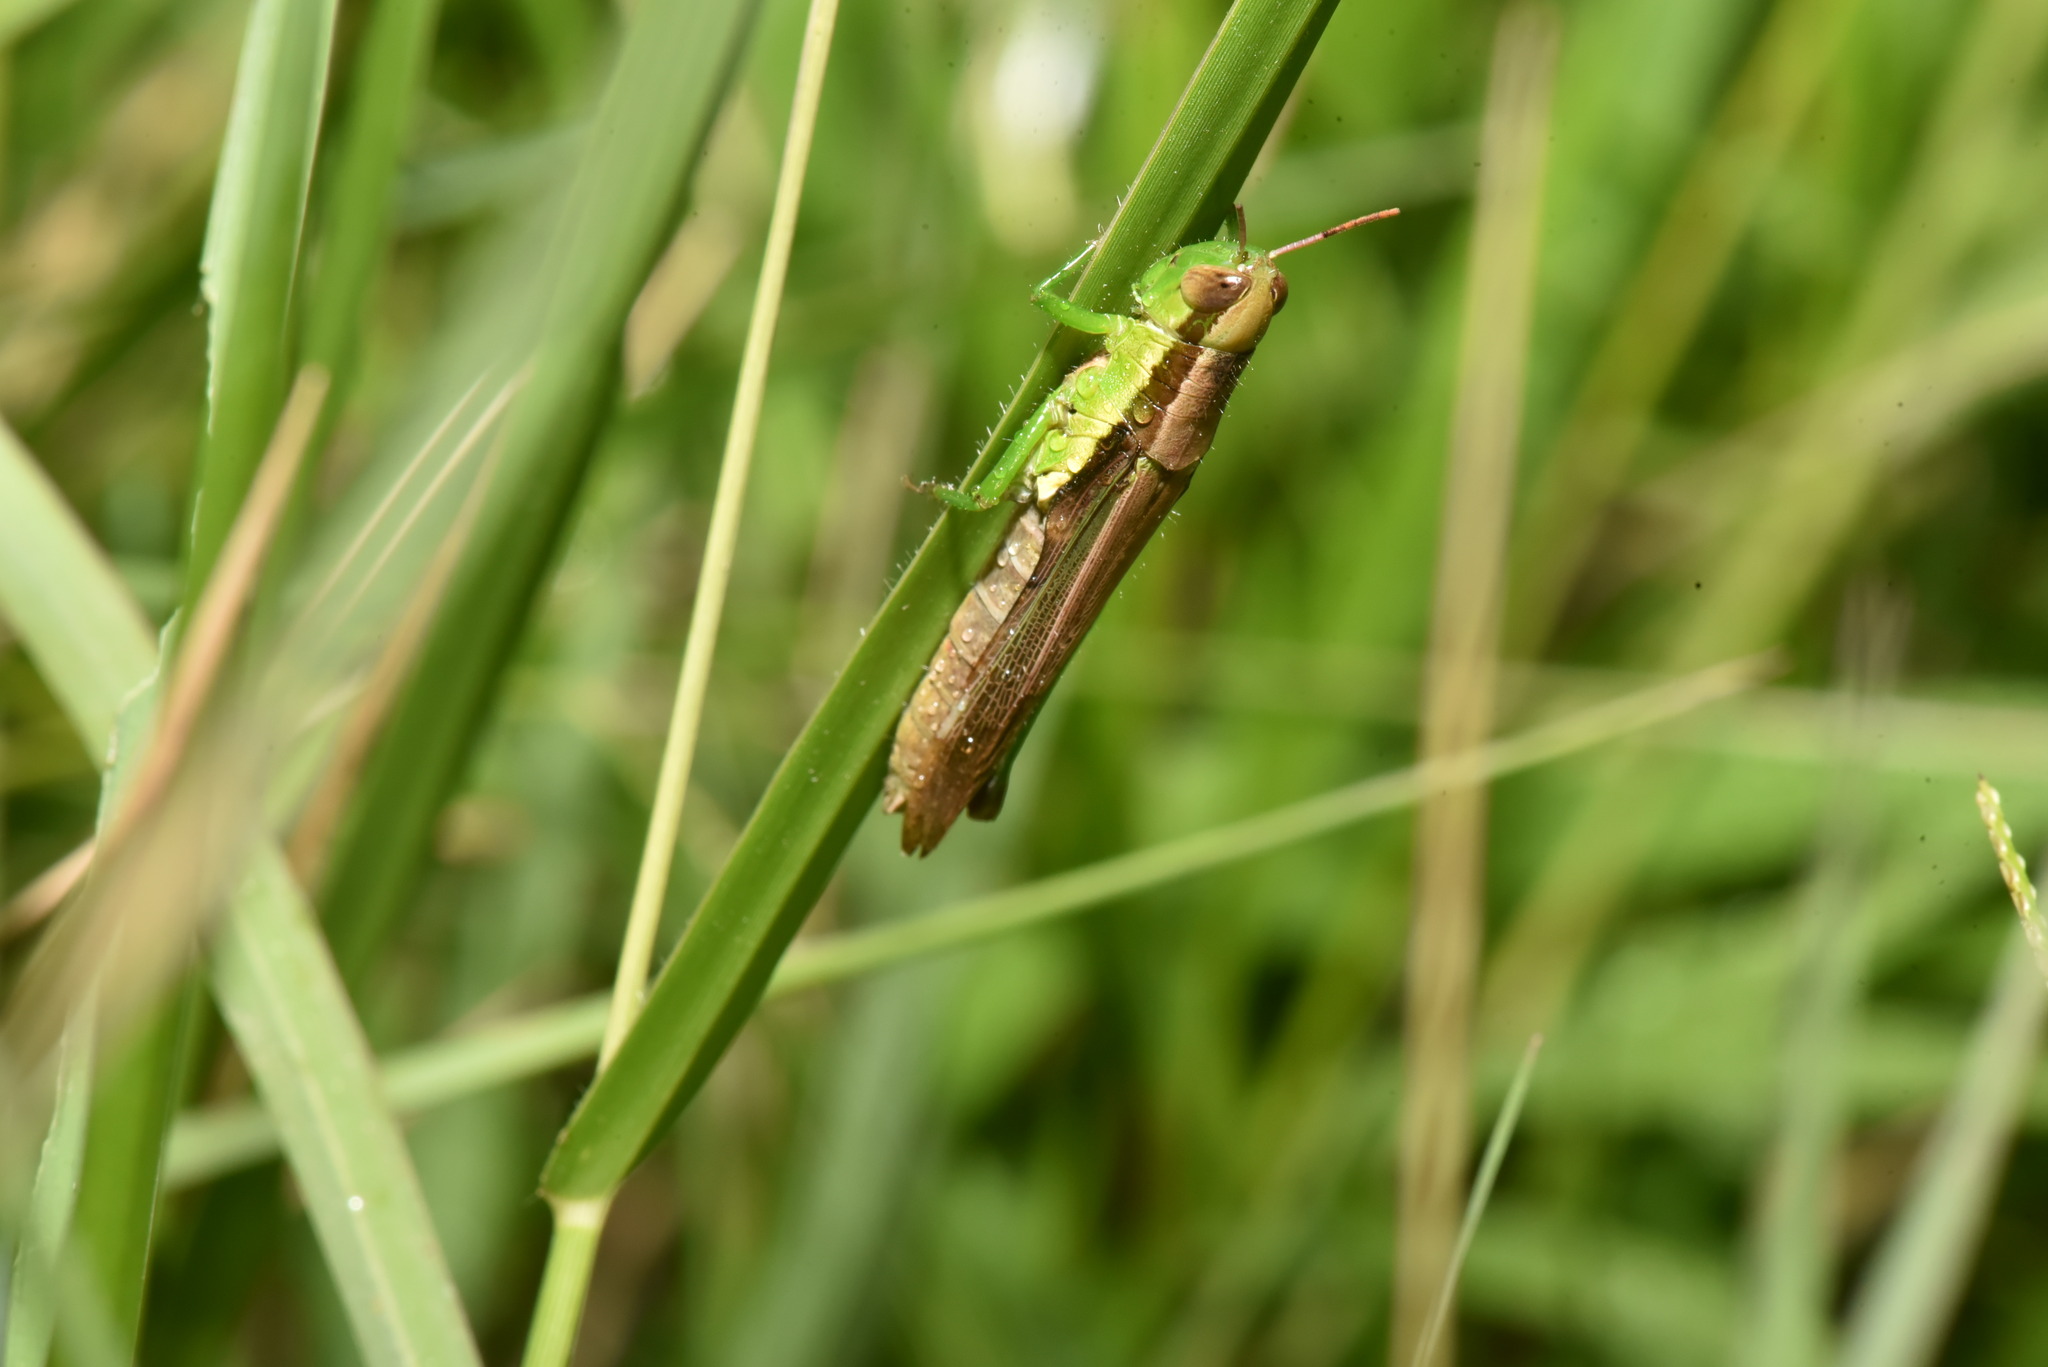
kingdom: Animalia
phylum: Arthropoda
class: Insecta
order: Orthoptera
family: Acrididae
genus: Oxya
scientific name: Oxya chinensis
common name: Small rice grasshopper
